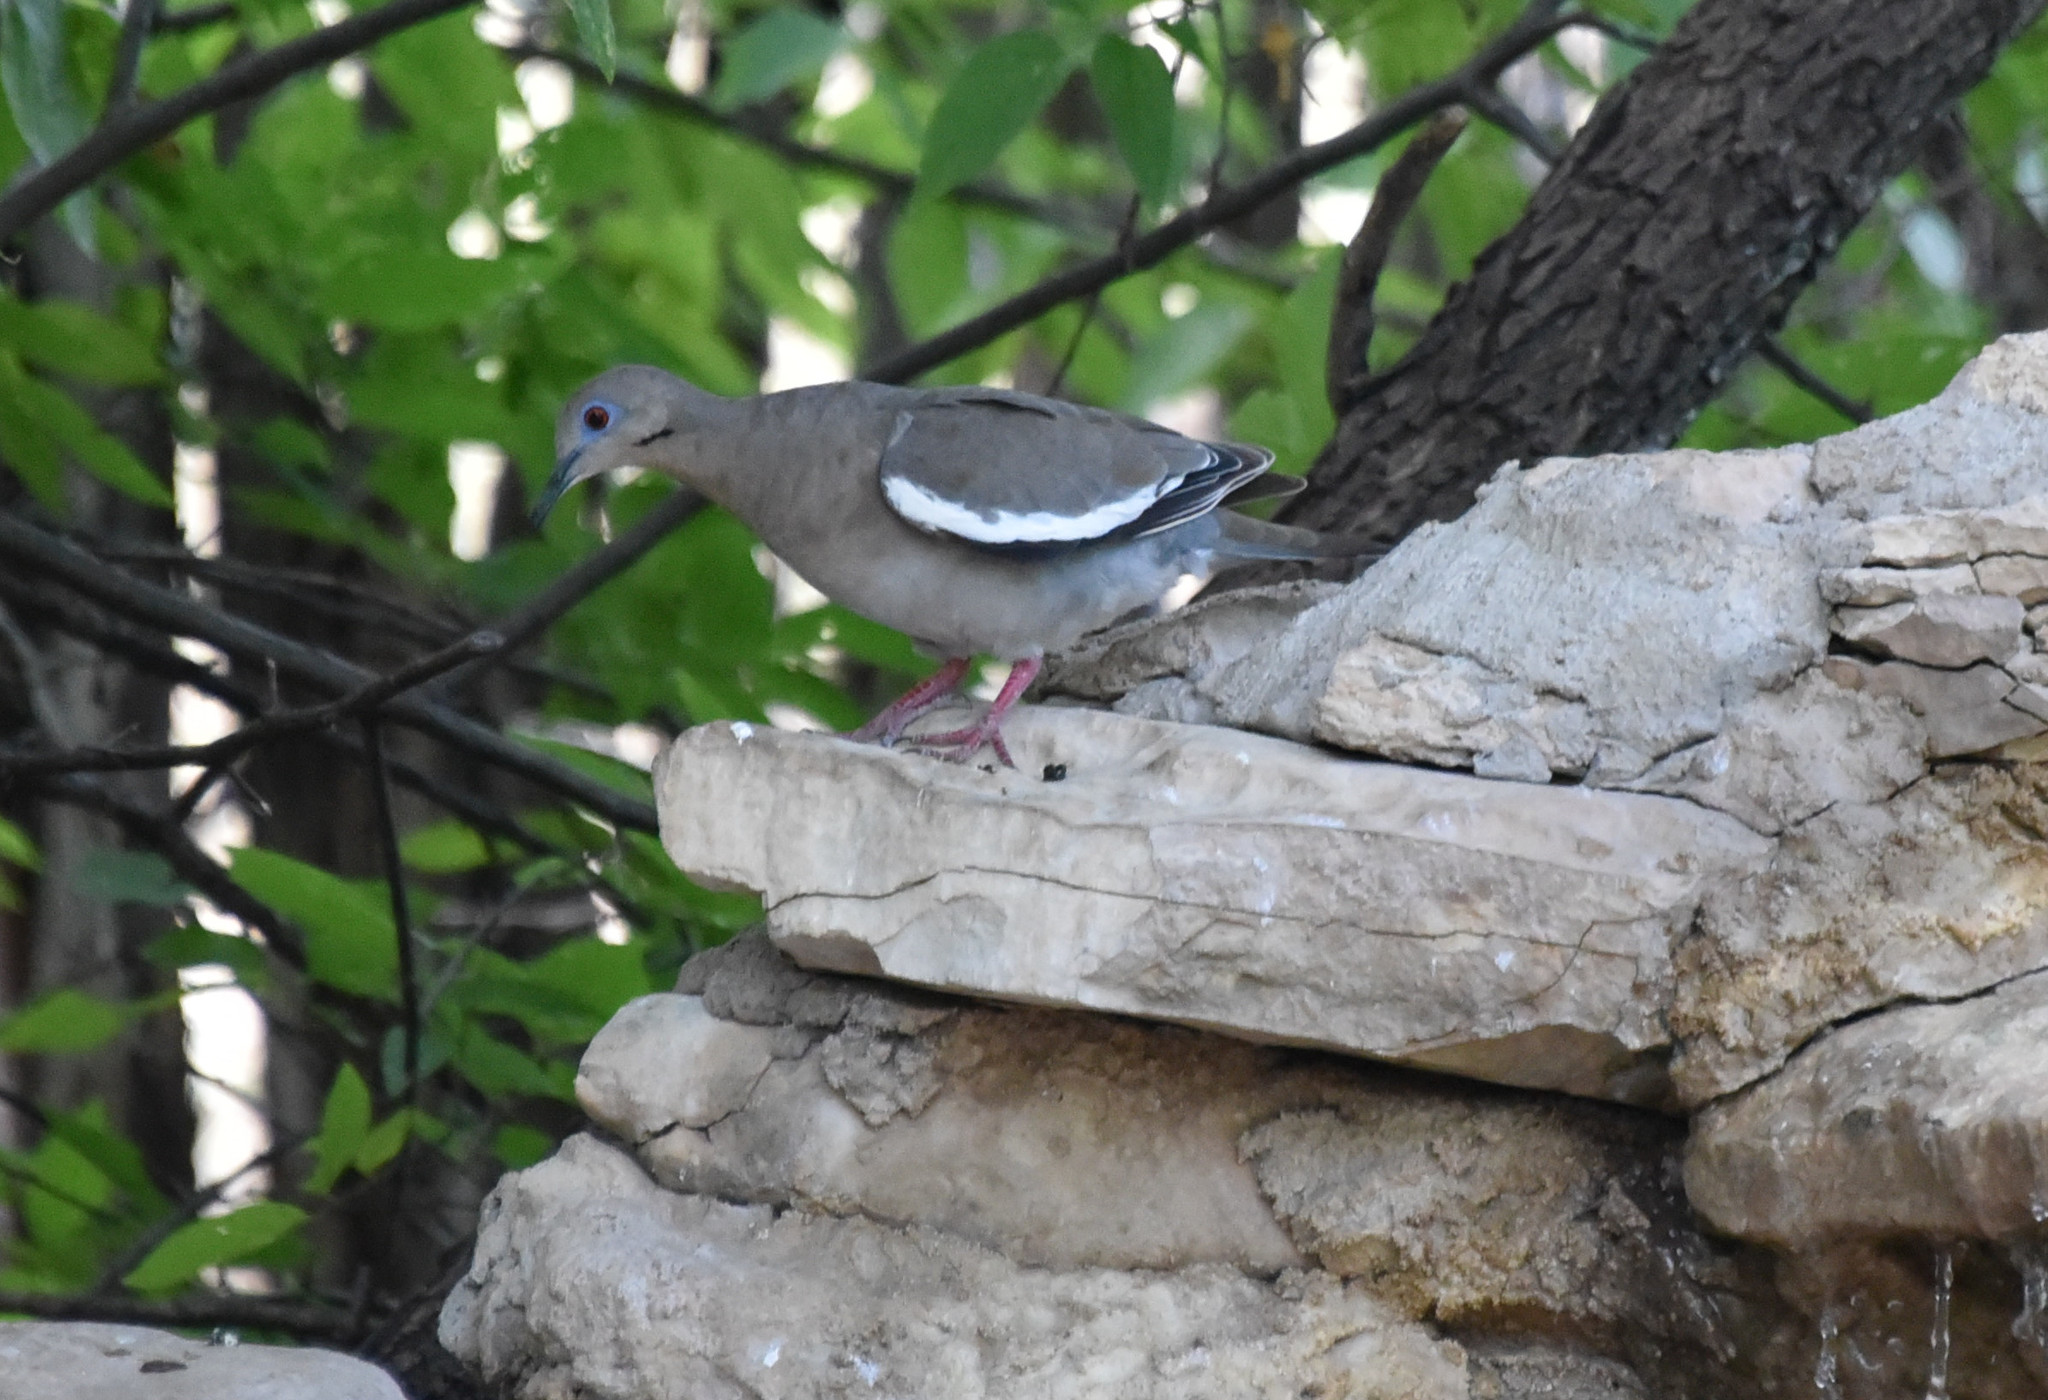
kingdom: Animalia
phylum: Chordata
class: Aves
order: Columbiformes
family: Columbidae
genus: Zenaida
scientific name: Zenaida asiatica
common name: White-winged dove
